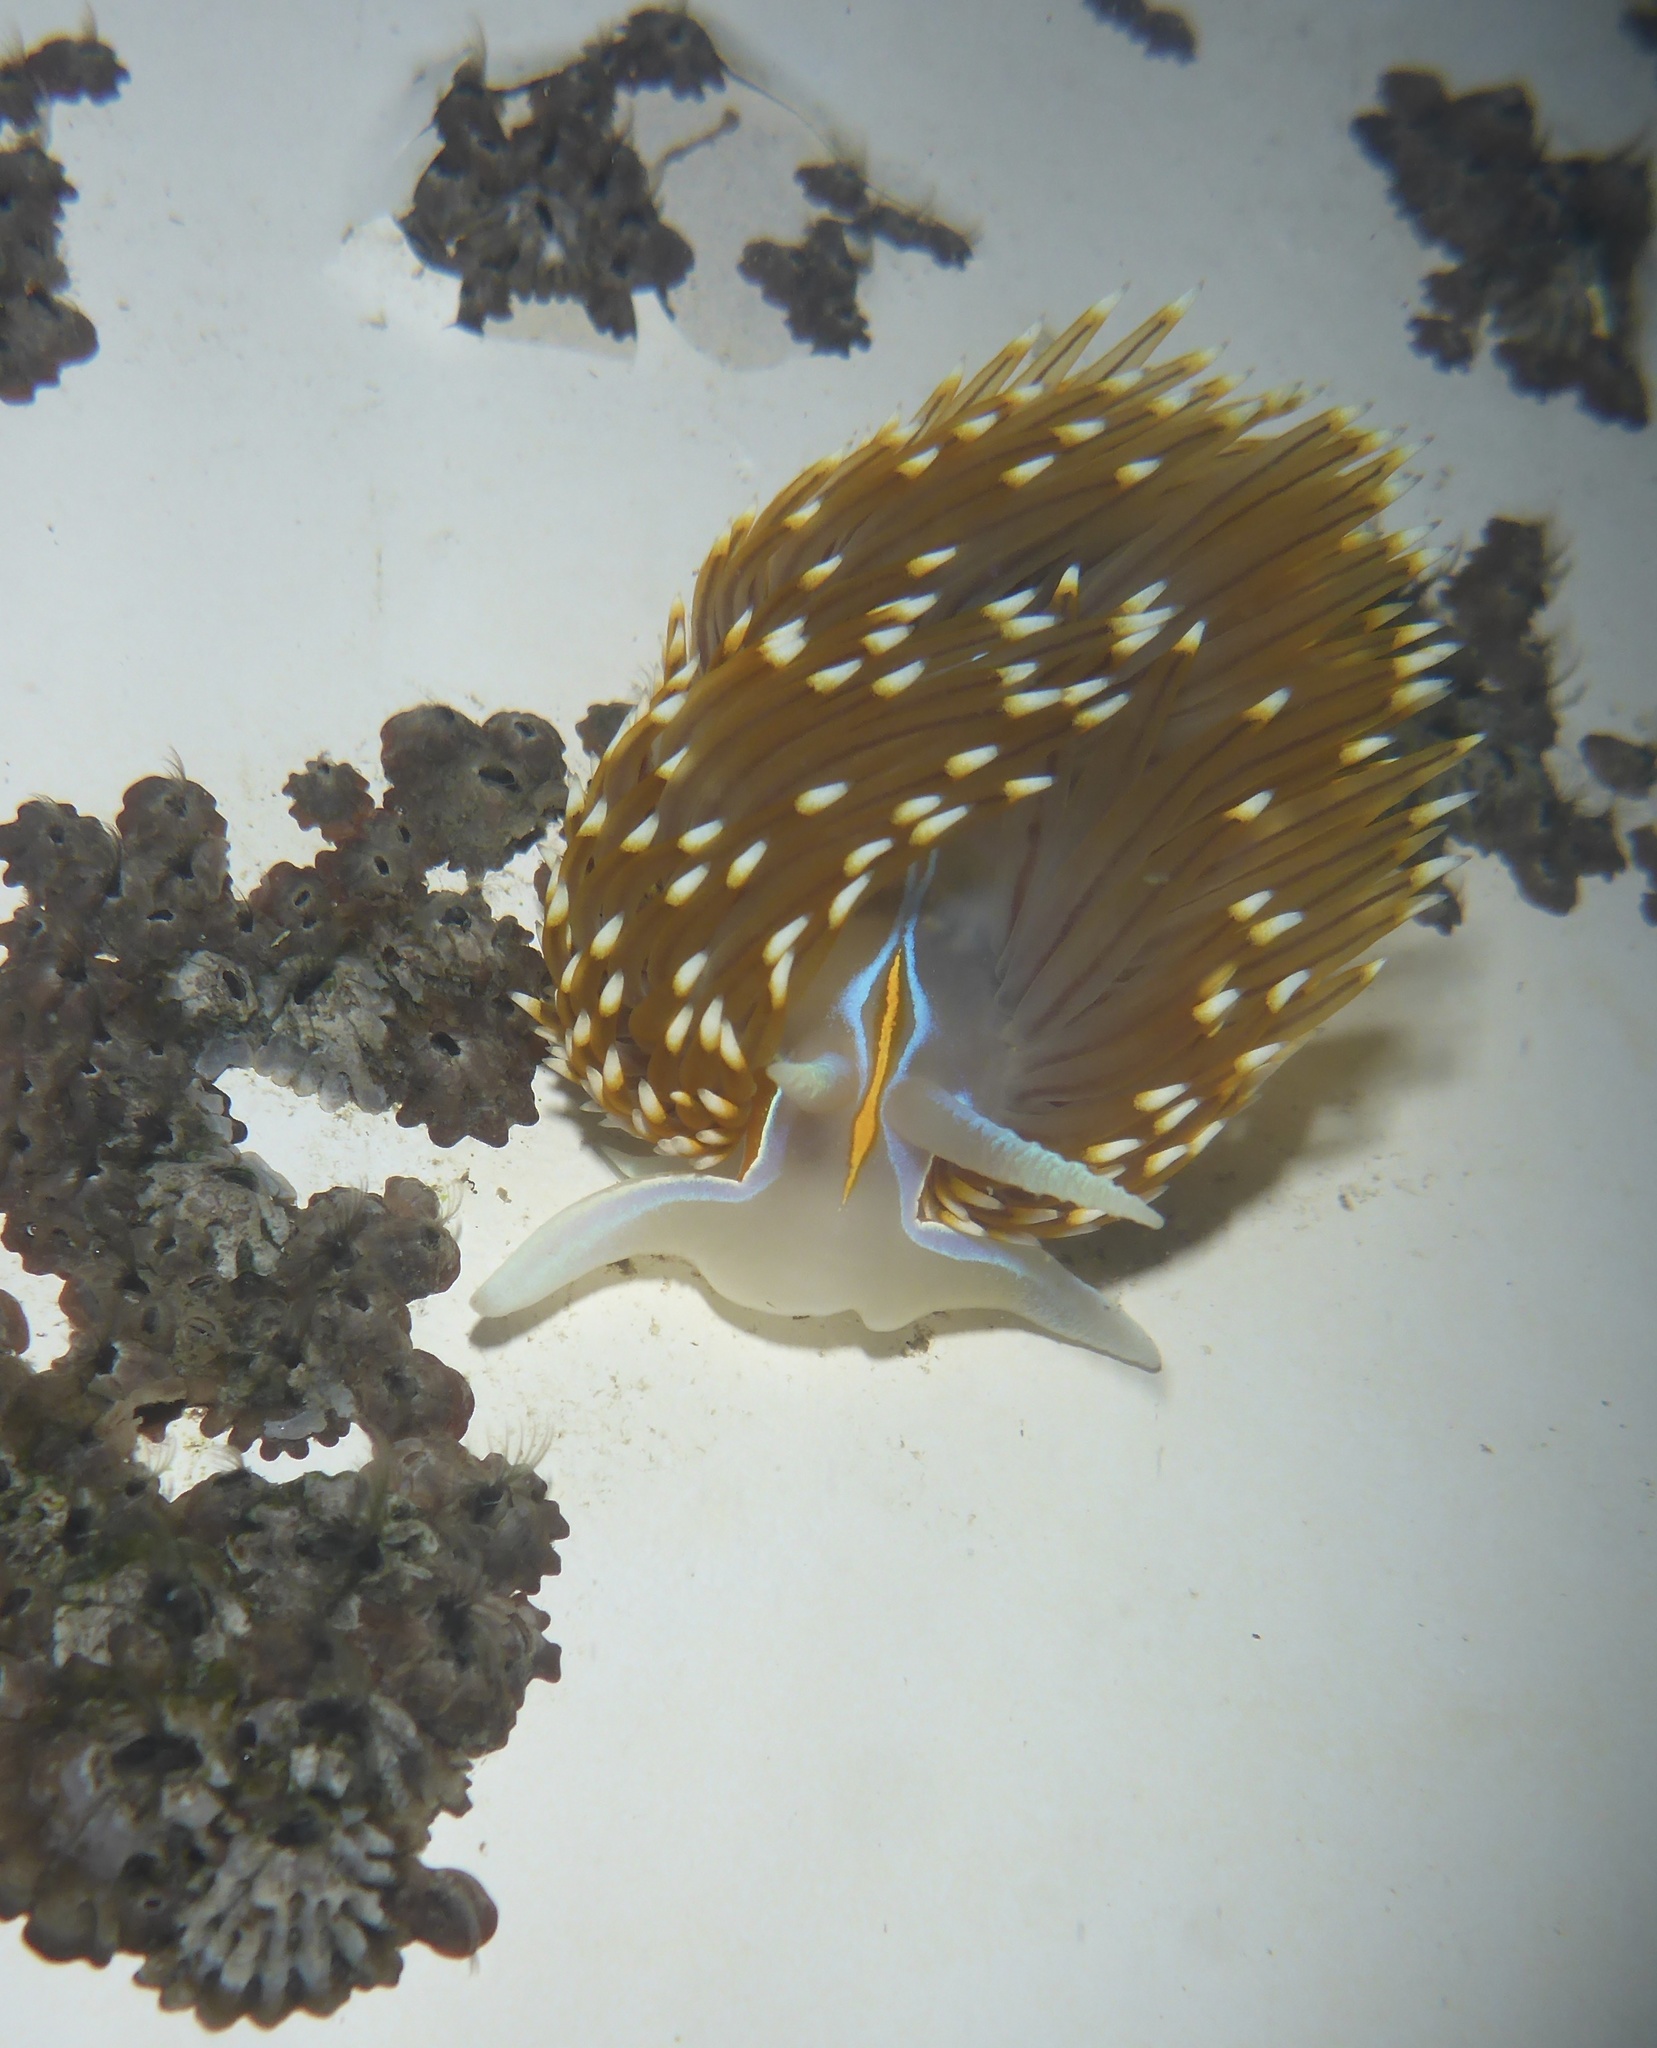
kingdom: Animalia
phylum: Mollusca
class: Gastropoda
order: Nudibranchia
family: Myrrhinidae
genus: Hermissenda
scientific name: Hermissenda opalescens
